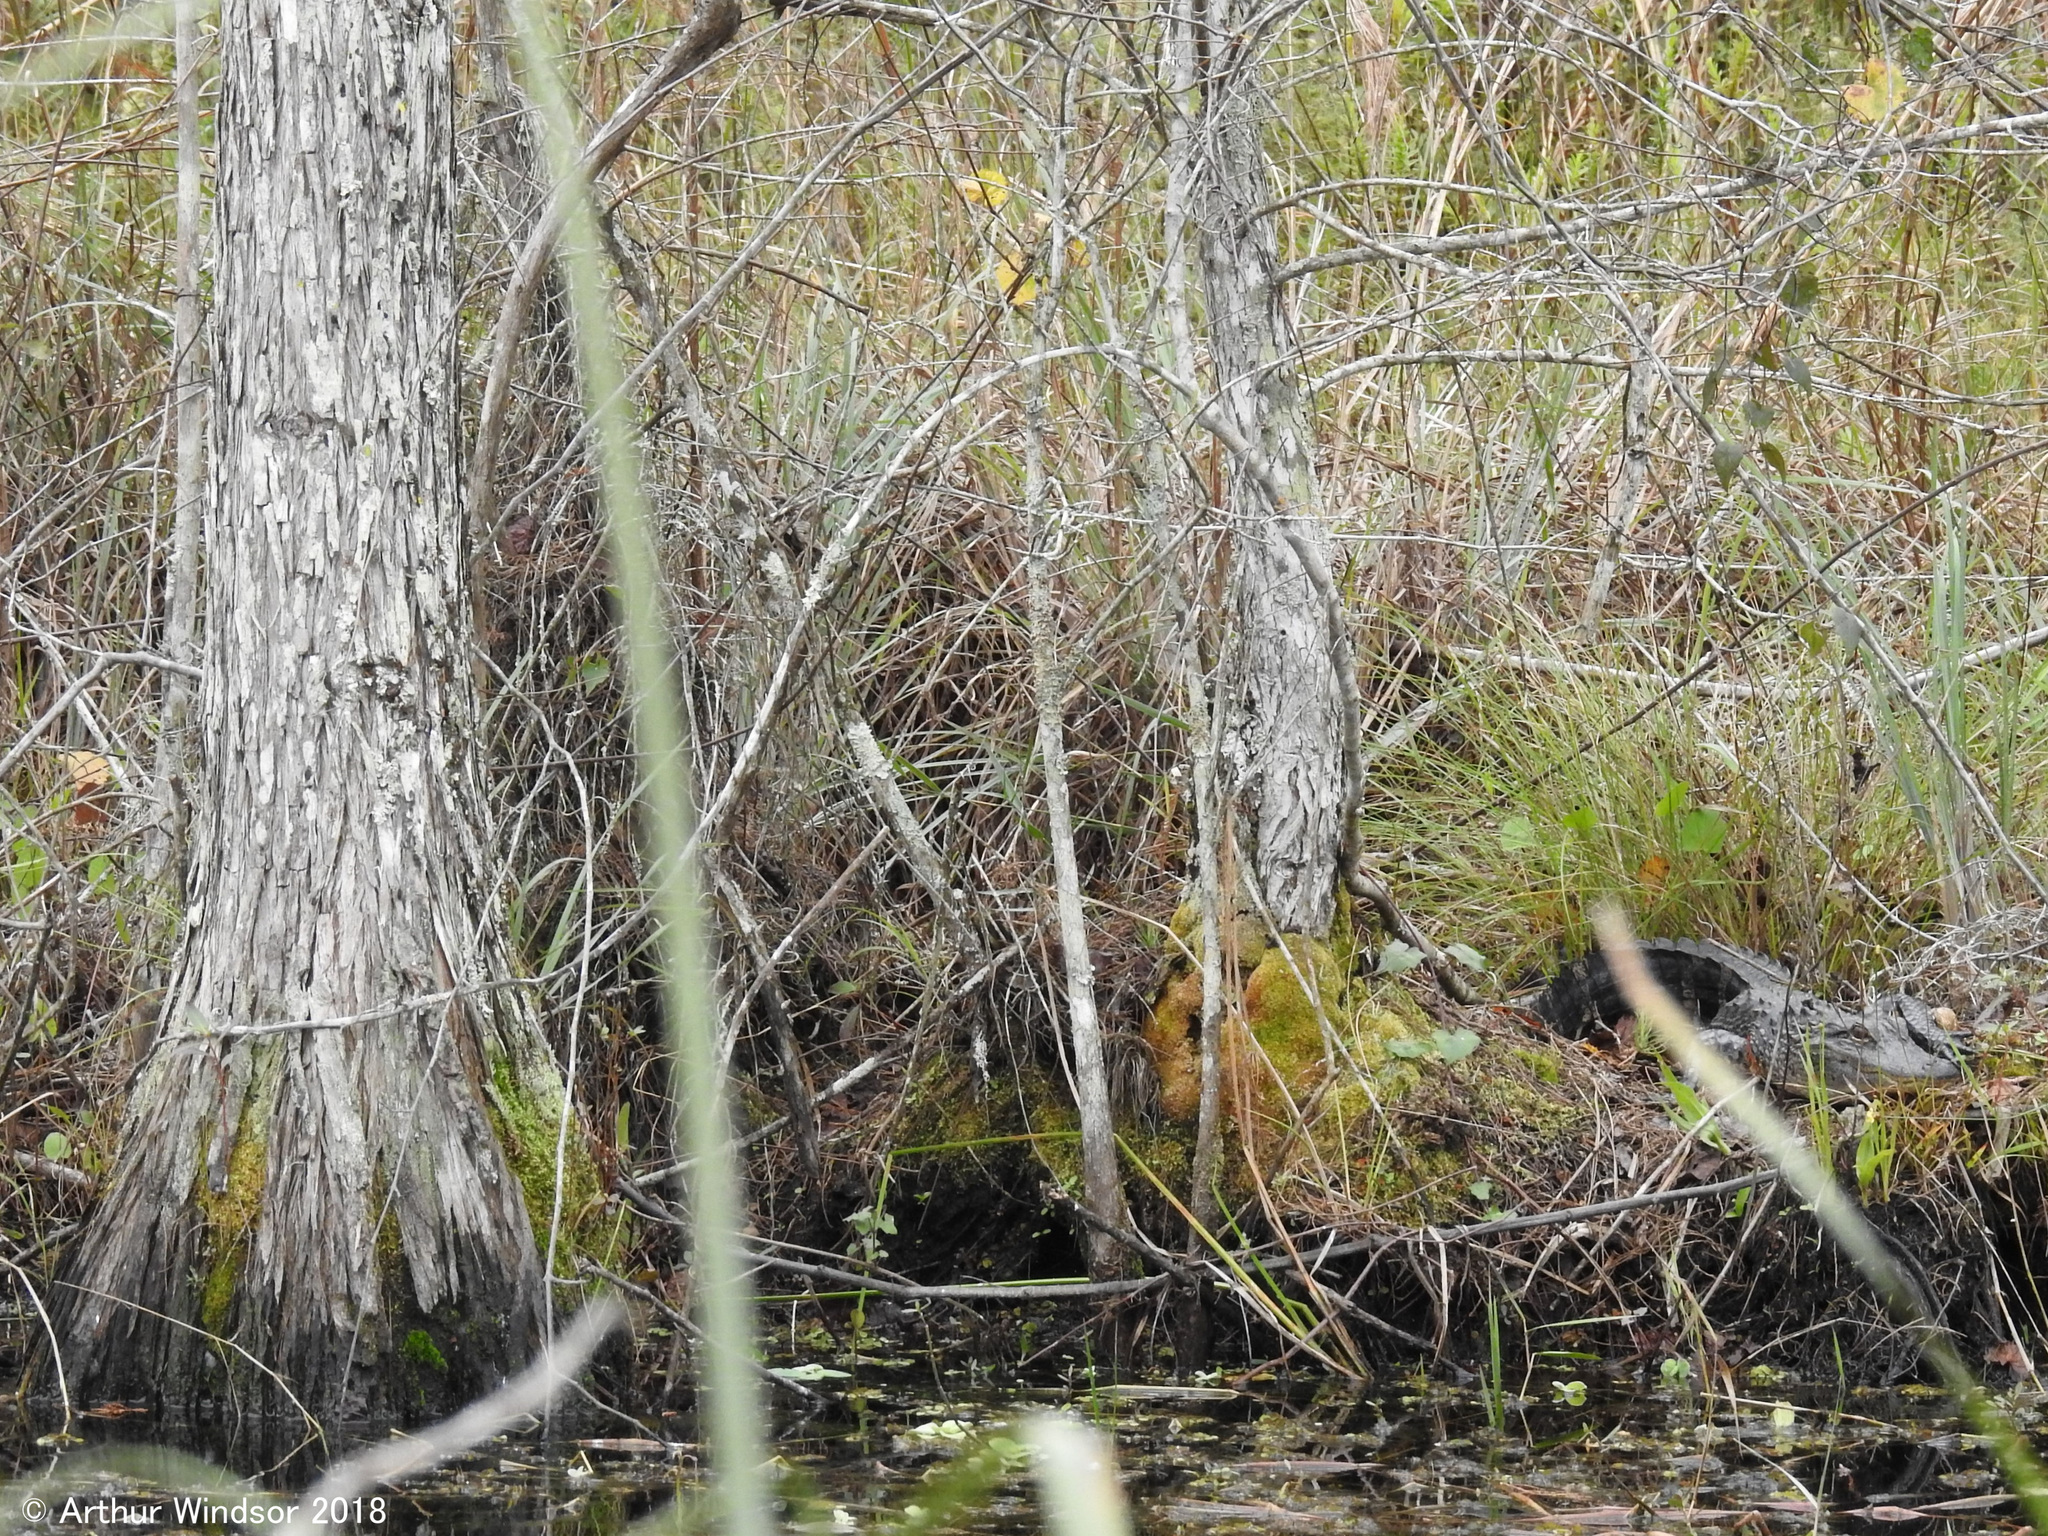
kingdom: Animalia
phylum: Chordata
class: Crocodylia
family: Alligatoridae
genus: Alligator
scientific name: Alligator mississippiensis
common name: American alligator
